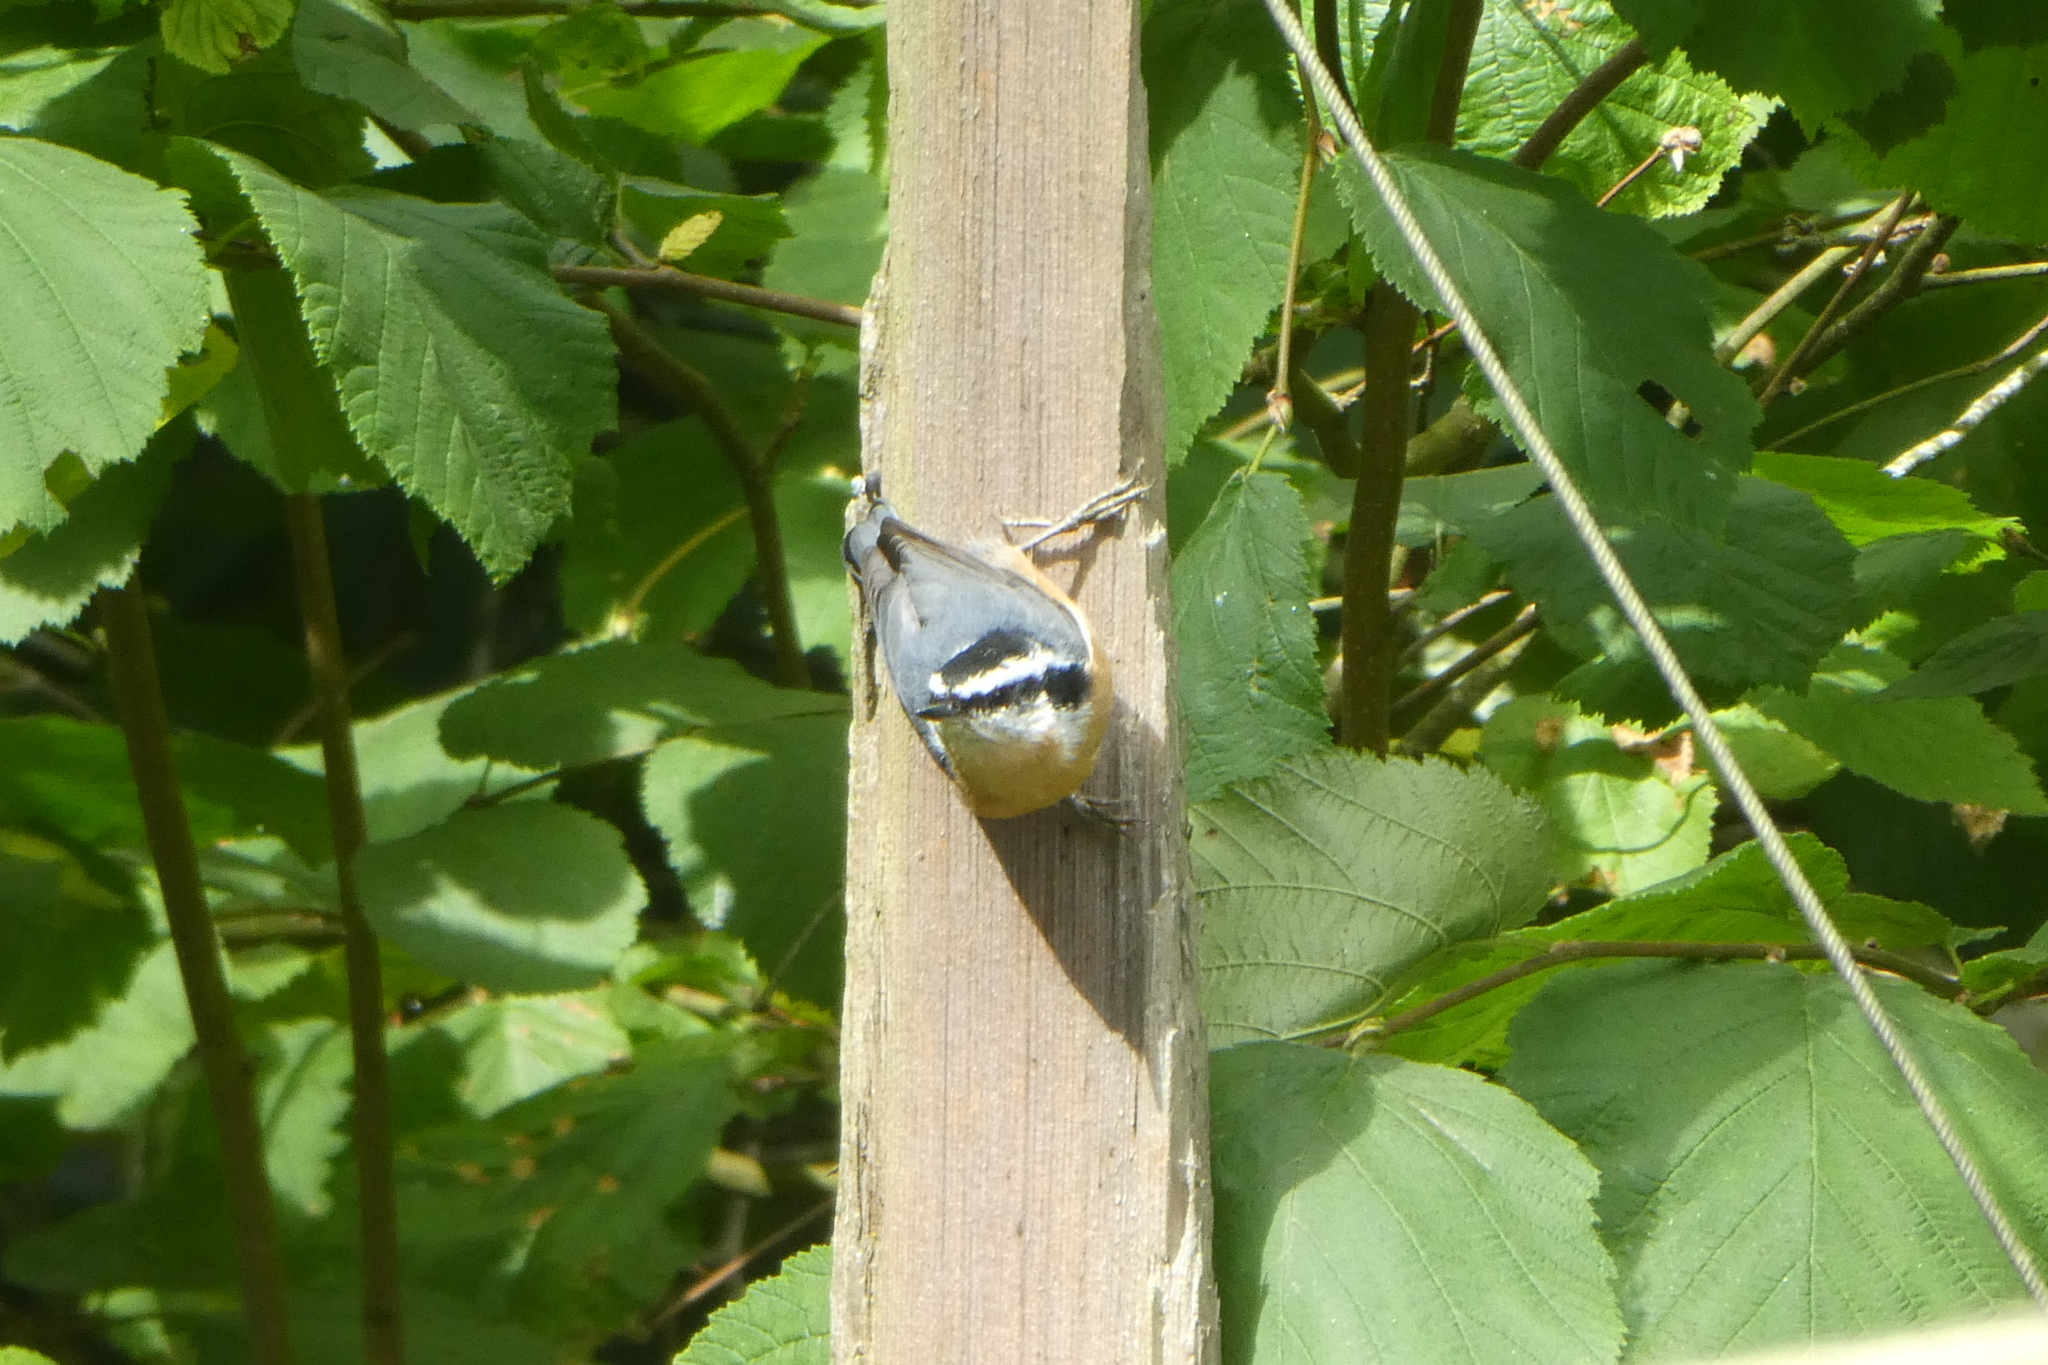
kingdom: Animalia
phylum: Chordata
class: Aves
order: Passeriformes
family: Sittidae
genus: Sitta
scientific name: Sitta canadensis
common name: Red-breasted nuthatch
